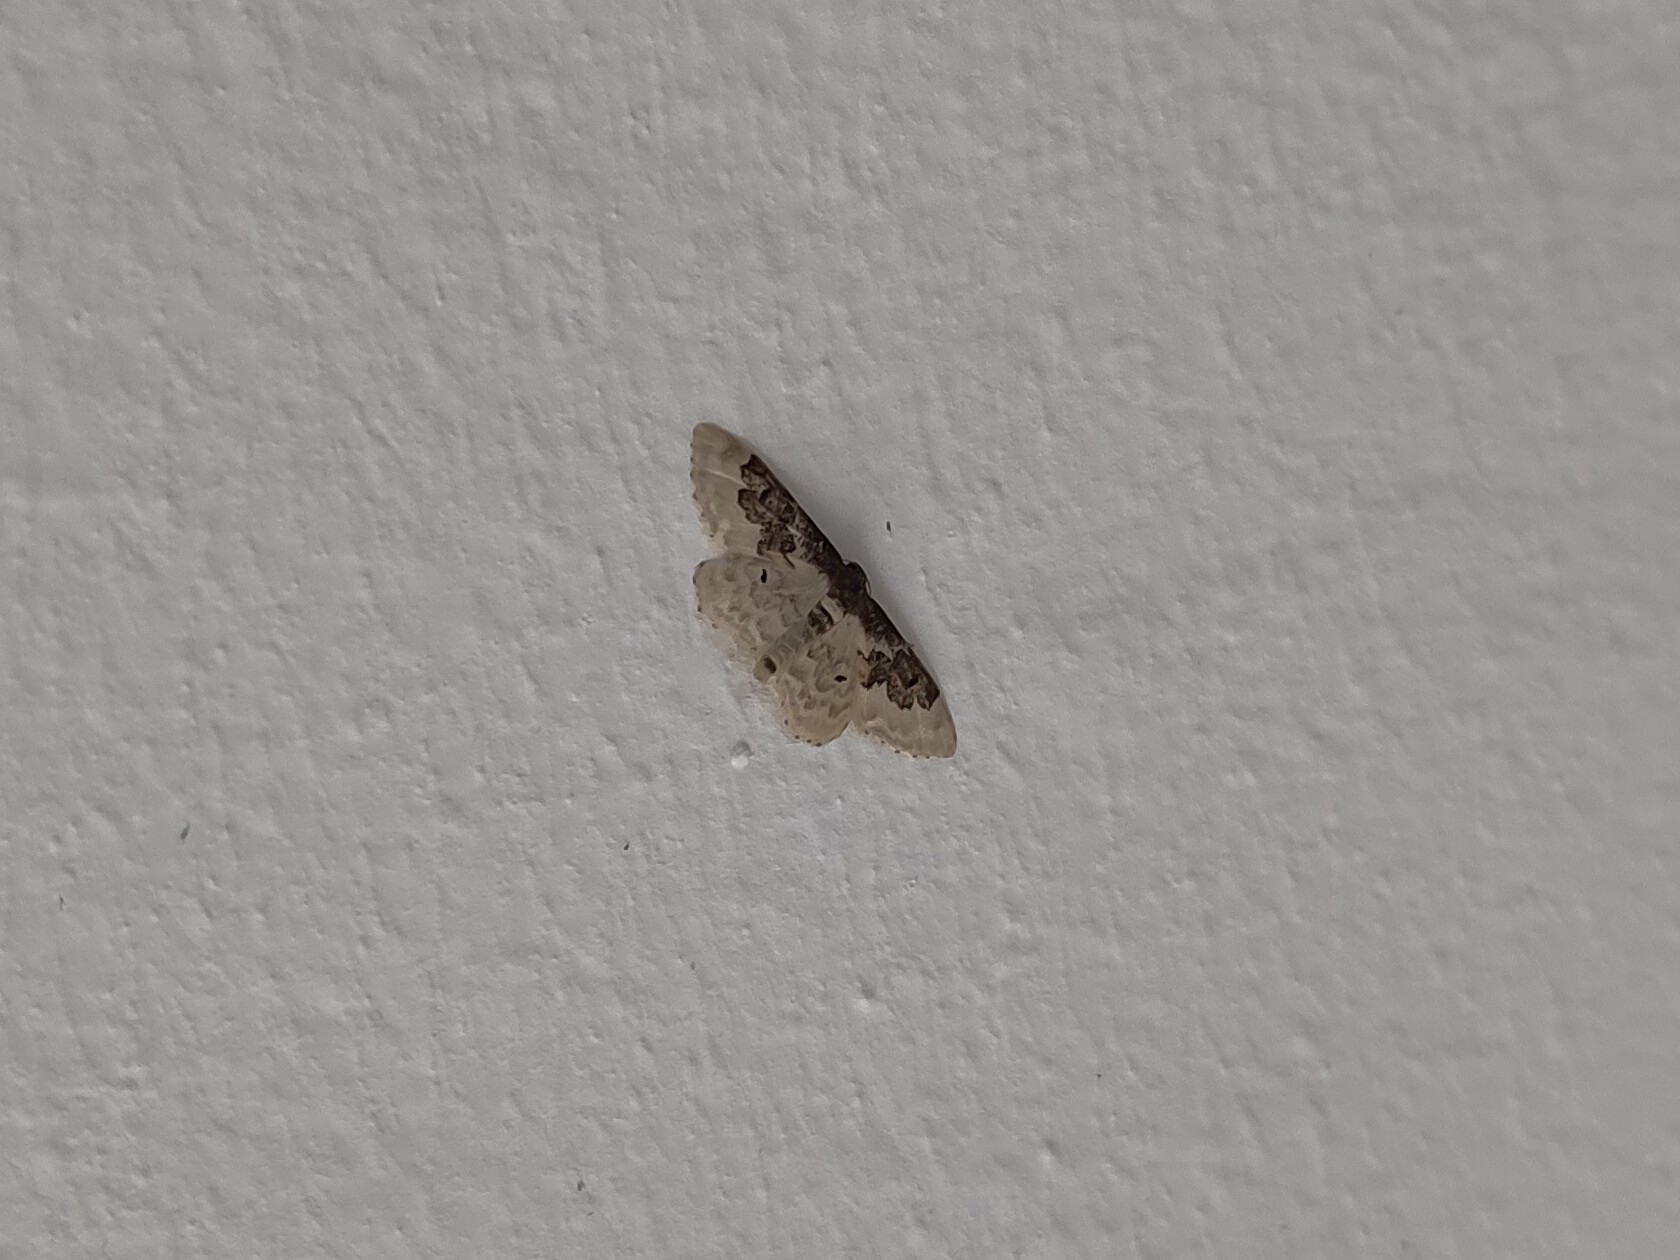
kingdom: Animalia
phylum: Arthropoda
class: Insecta
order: Lepidoptera
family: Geometridae
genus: Idaea
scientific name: Idaea rusticata
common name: Least carpet
